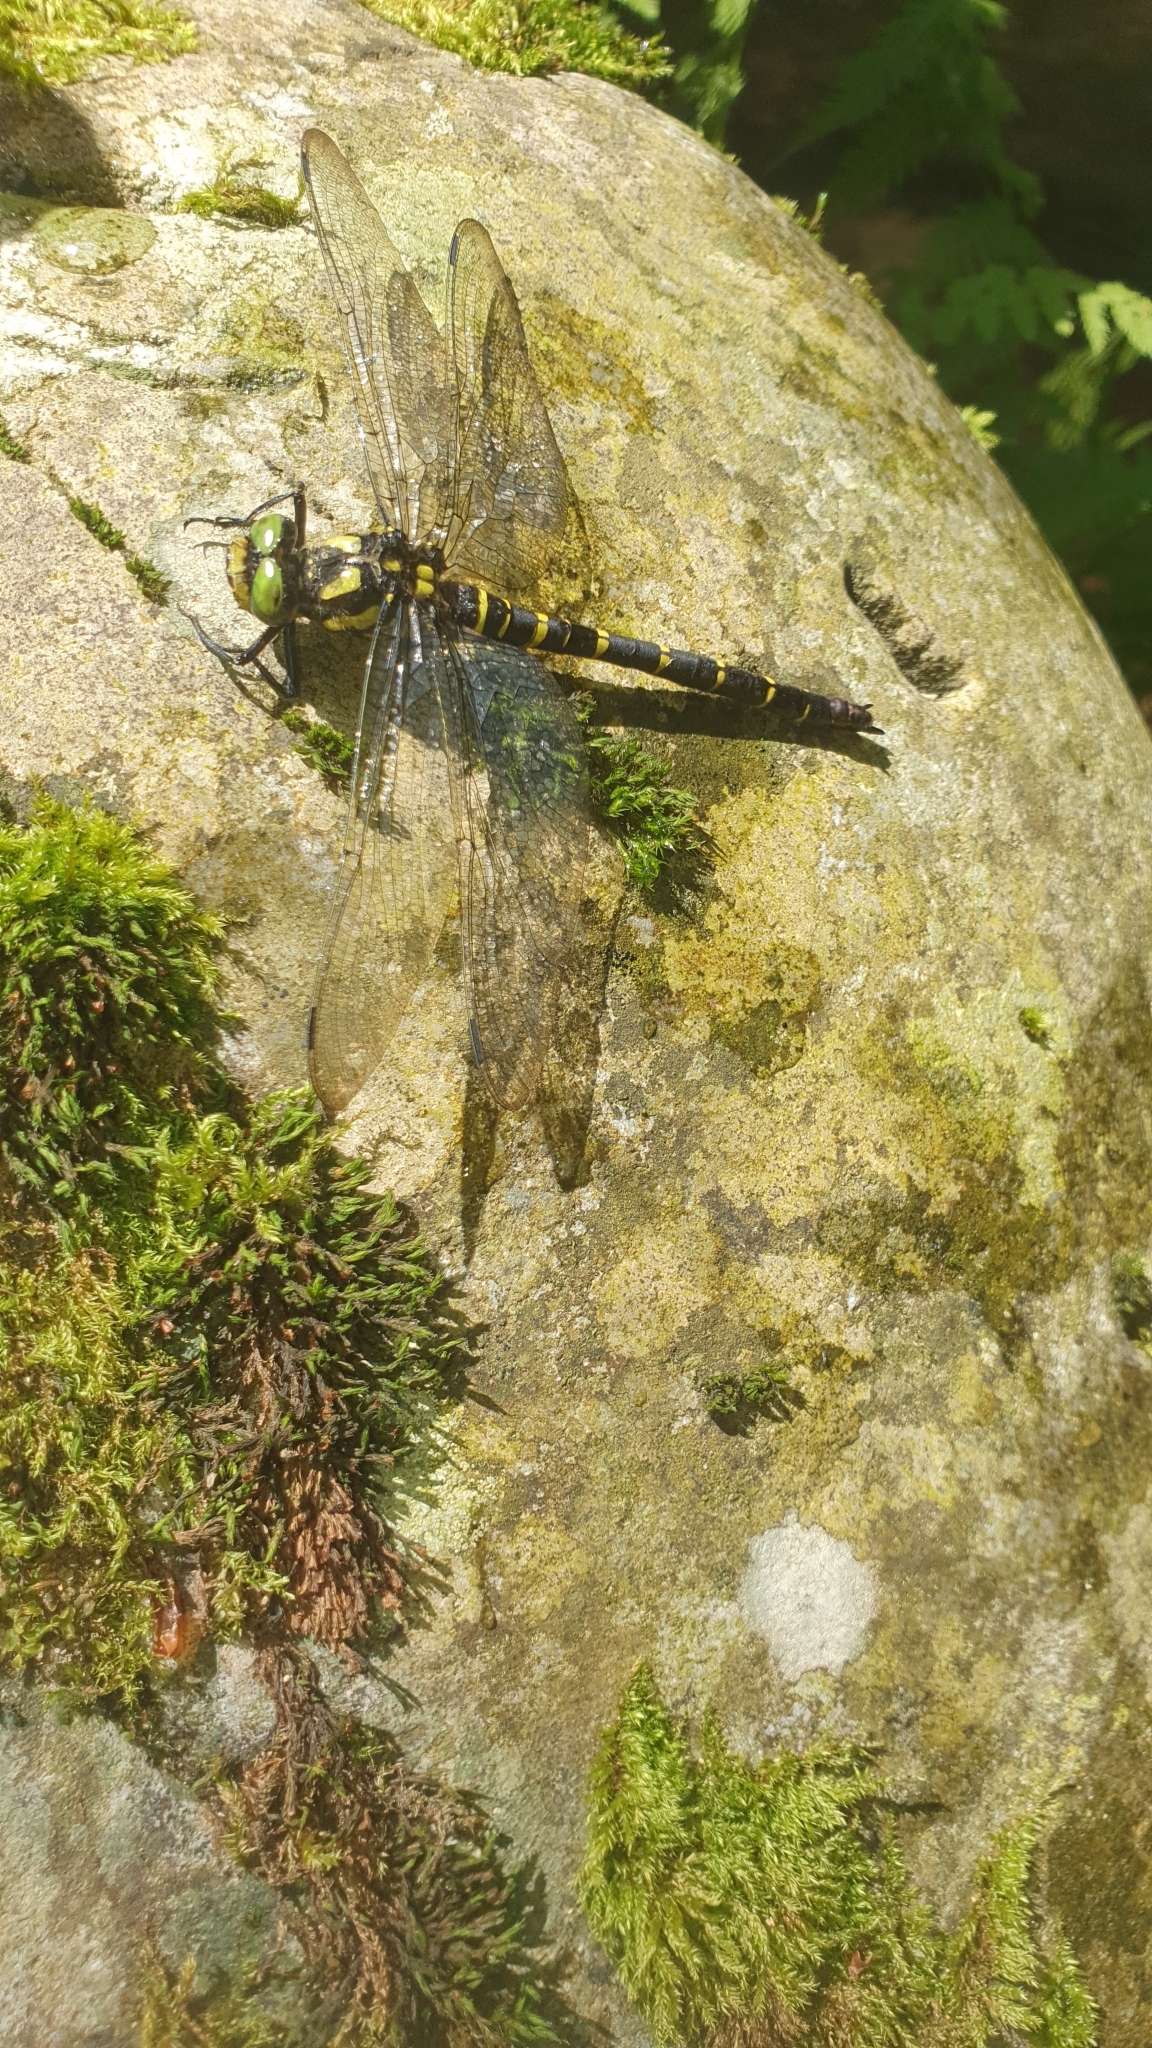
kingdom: Animalia
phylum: Arthropoda
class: Insecta
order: Odonata
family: Cordulegastridae
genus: Cordulegaster
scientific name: Cordulegaster bidentata
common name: Sombre goldenring
